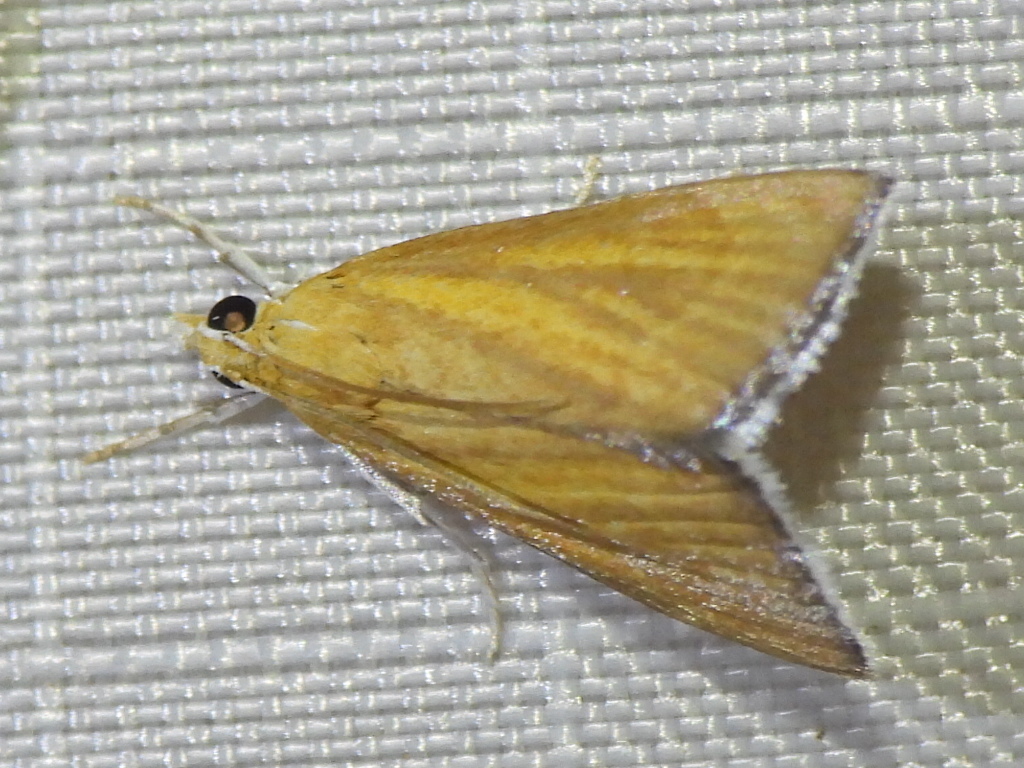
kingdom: Animalia
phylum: Arthropoda
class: Insecta
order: Lepidoptera
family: Crambidae
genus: Nascia
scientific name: Nascia acutellus
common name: Streaked orange moth
